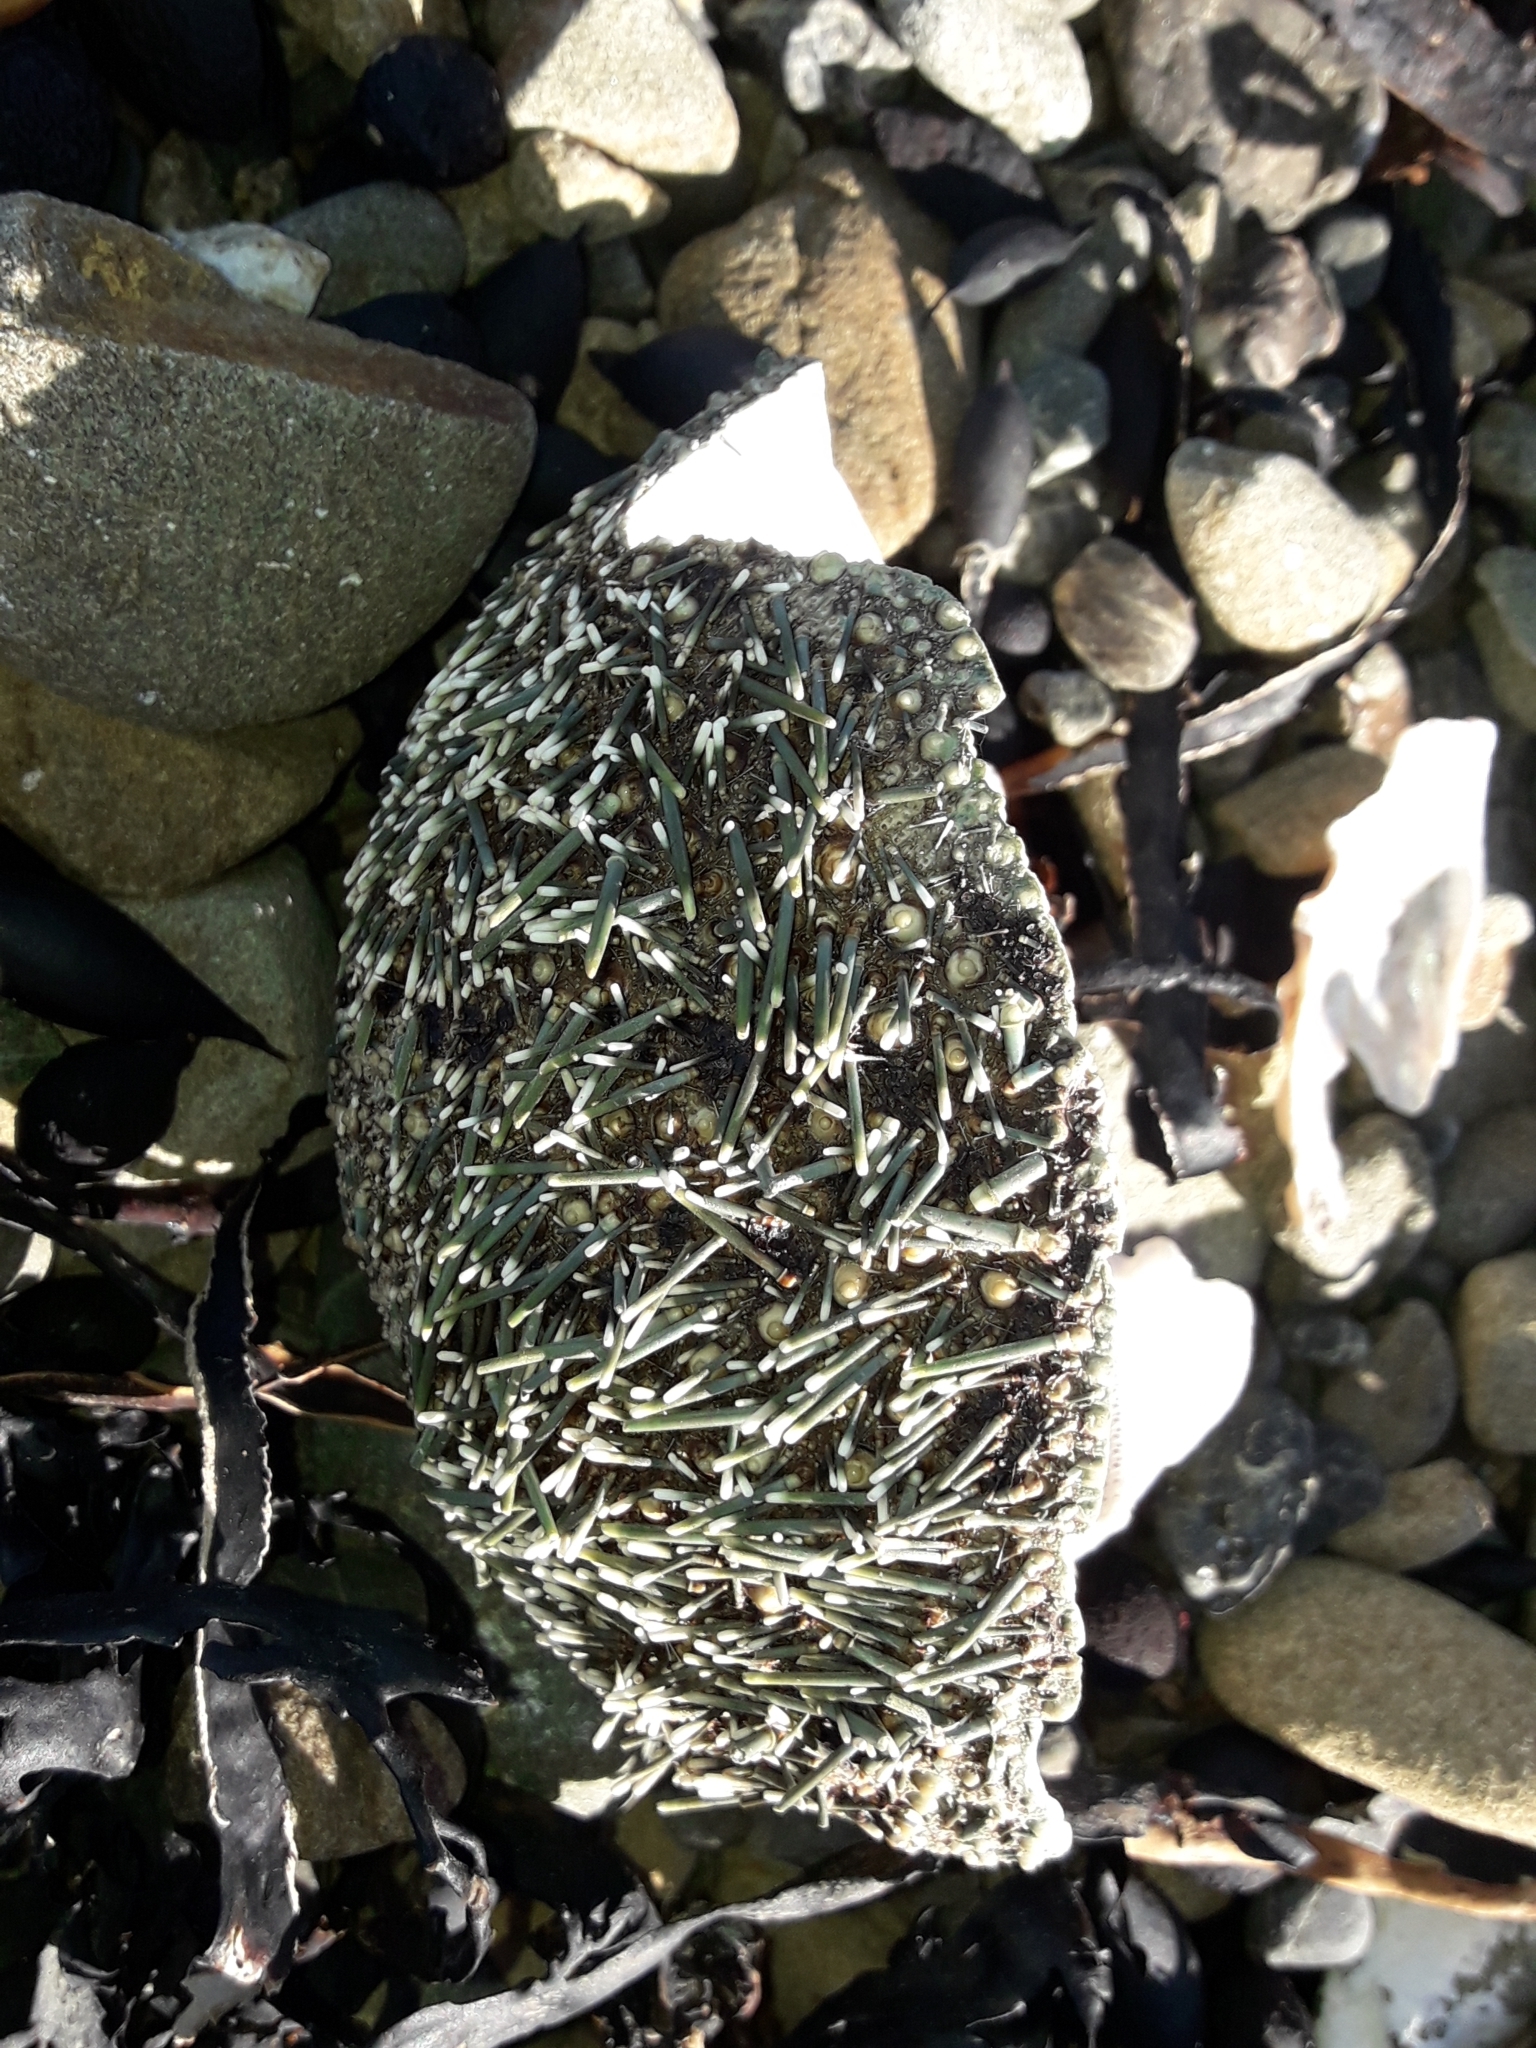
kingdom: Animalia
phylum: Echinodermata
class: Echinoidea
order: Camarodonta
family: Echinometridae
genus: Evechinus
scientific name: Evechinus chloroticus
